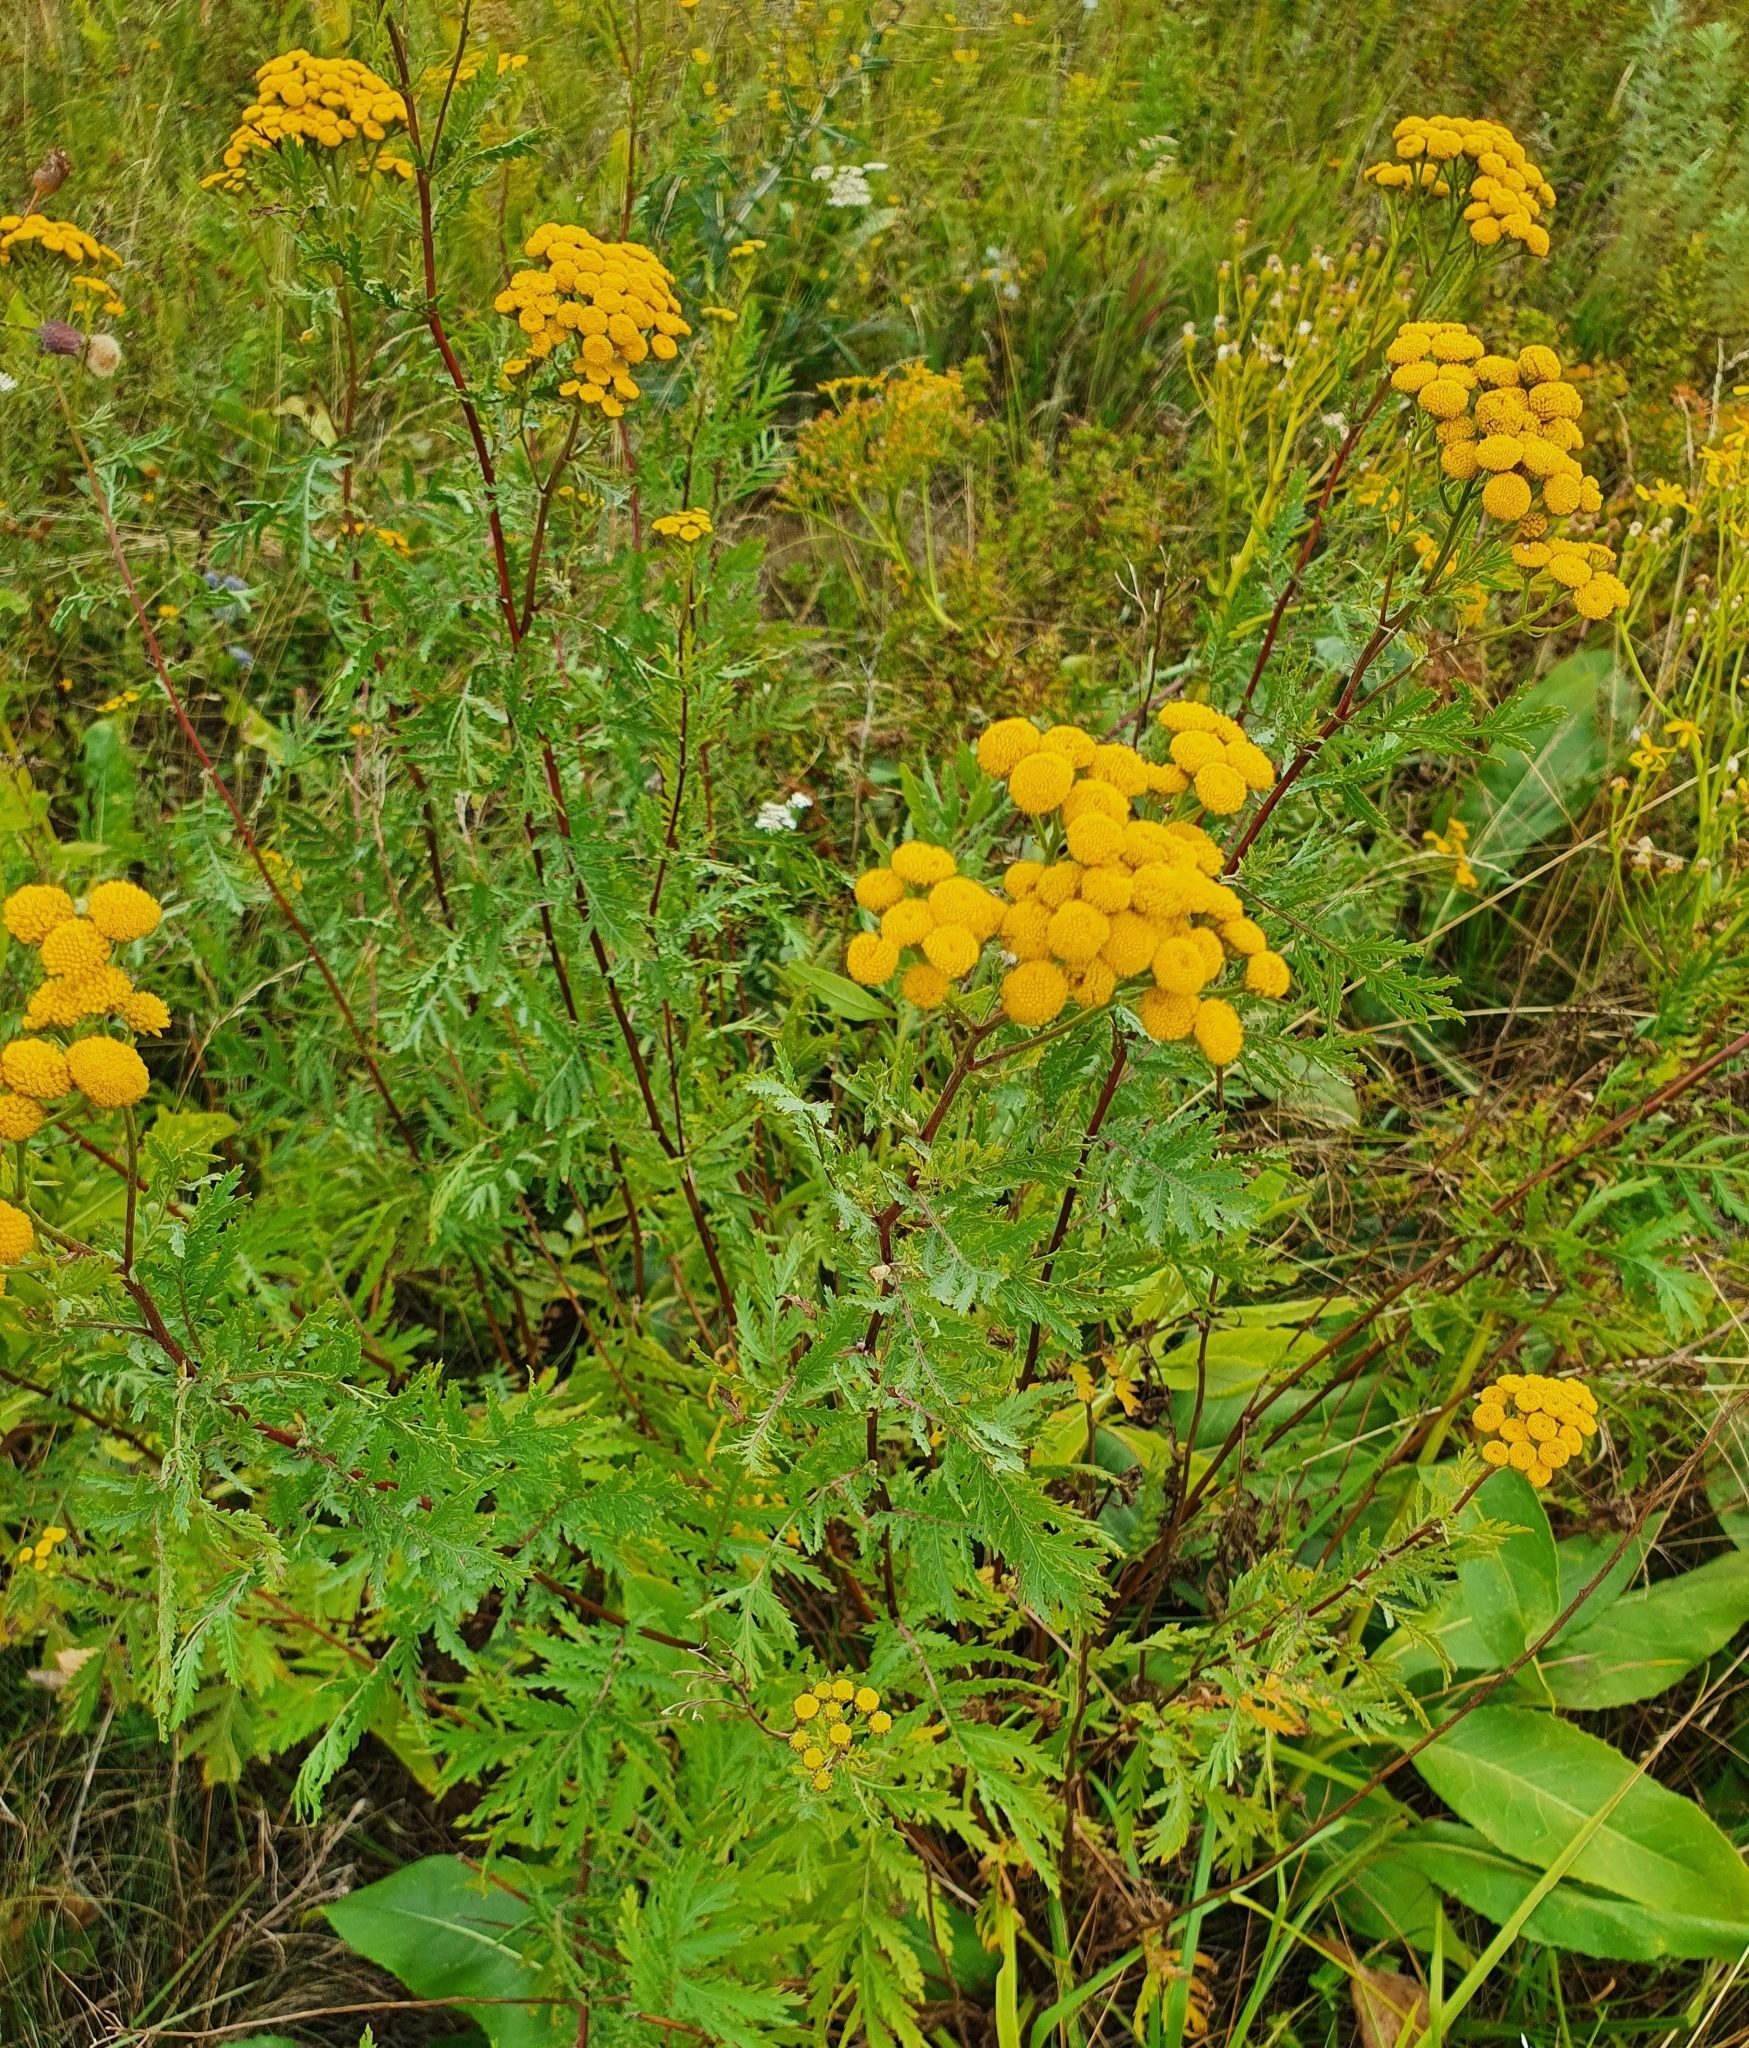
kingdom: Plantae
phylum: Tracheophyta
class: Magnoliopsida
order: Asterales
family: Asteraceae
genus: Tanacetum
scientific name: Tanacetum vulgare
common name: Common tansy
